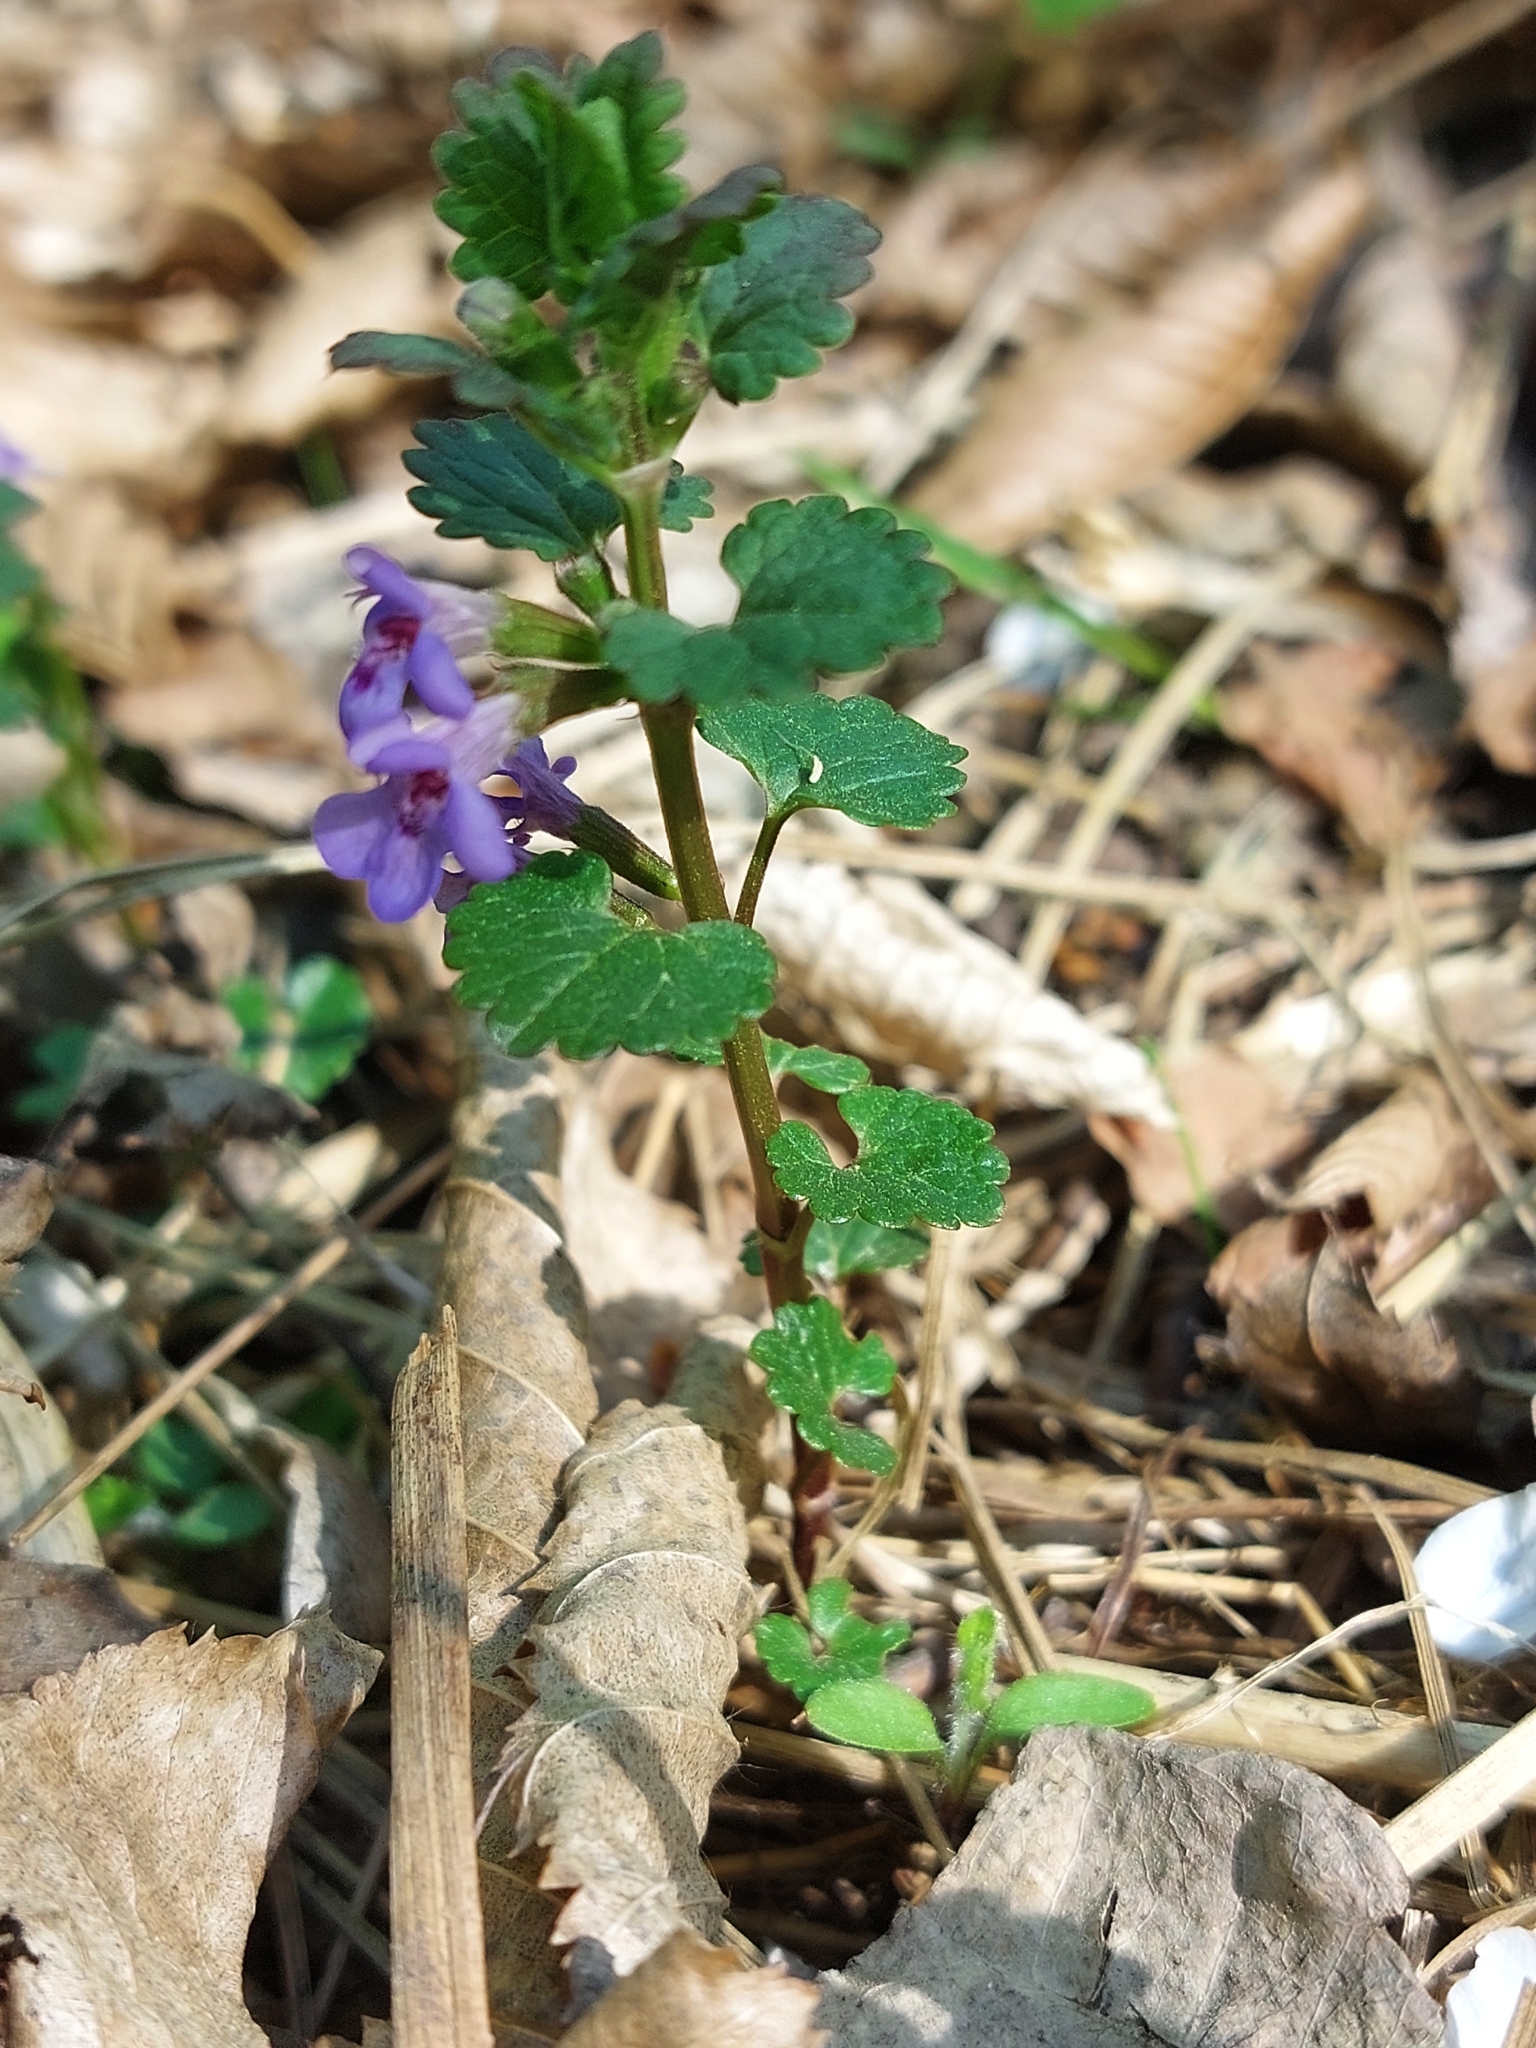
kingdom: Plantae
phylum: Tracheophyta
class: Magnoliopsida
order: Lamiales
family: Lamiaceae
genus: Glechoma
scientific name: Glechoma hederacea
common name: Ground ivy
